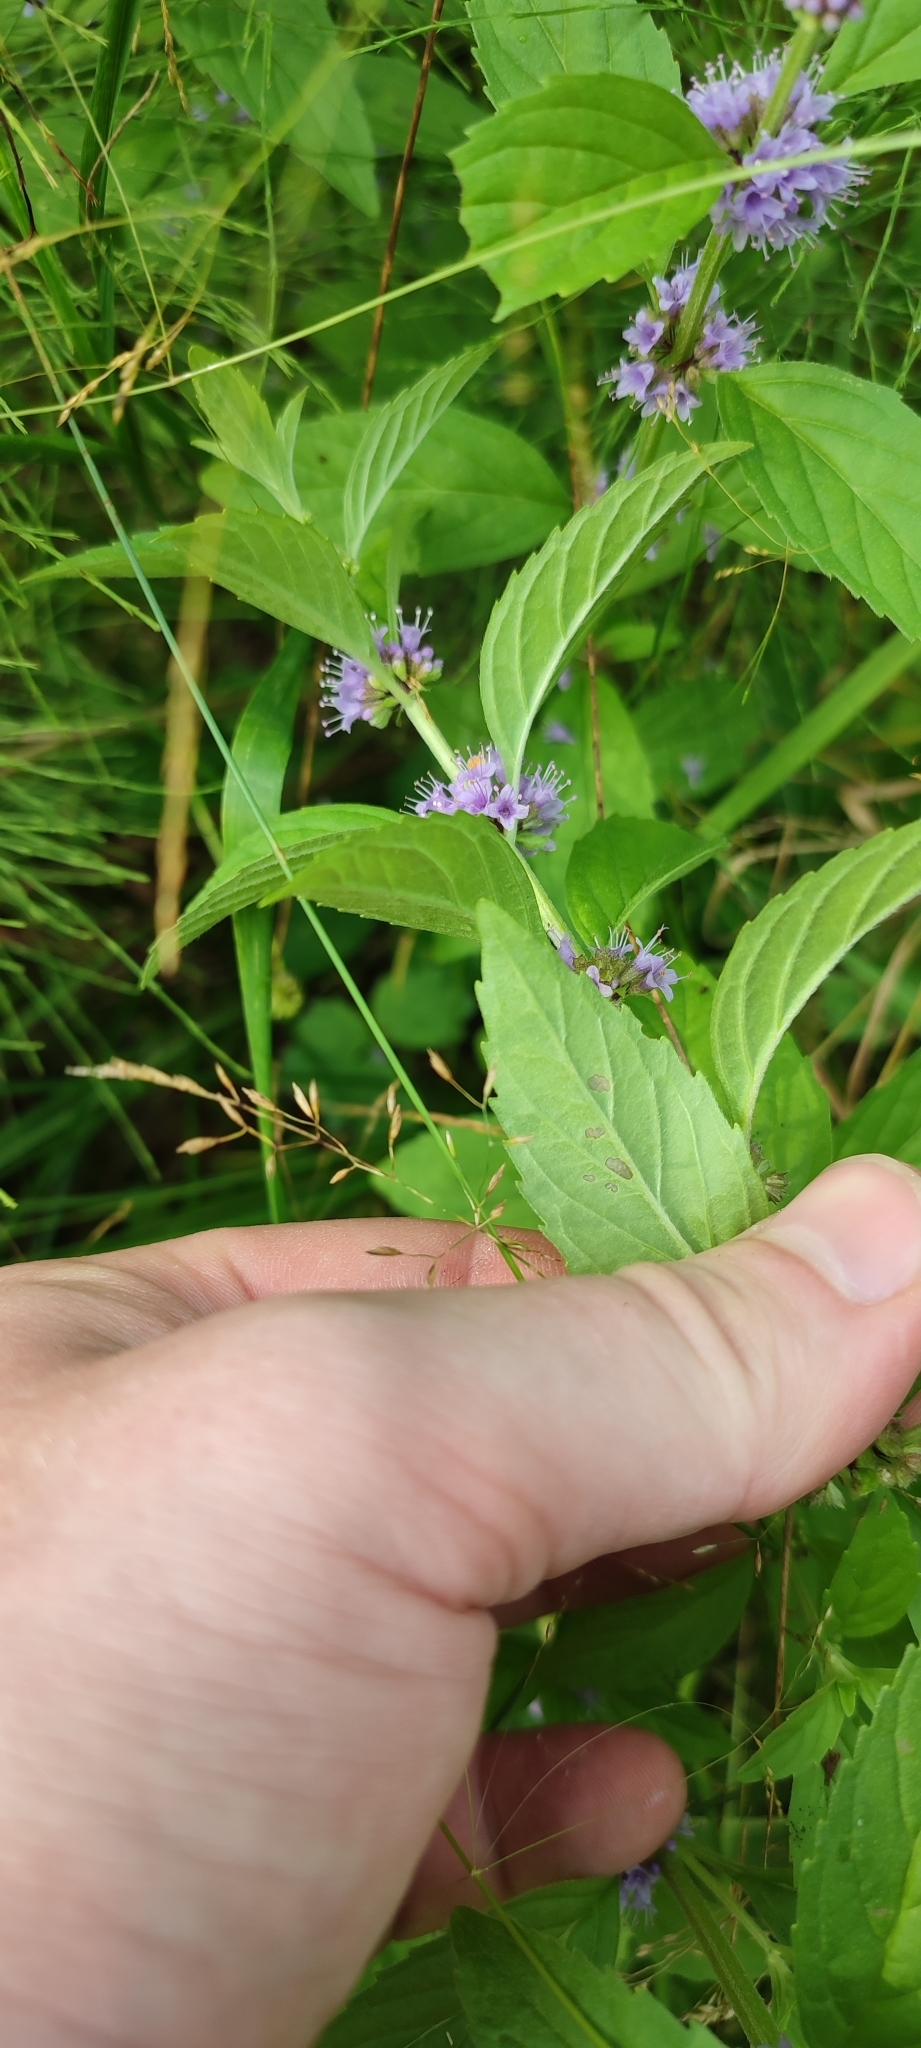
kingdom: Plantae
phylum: Tracheophyta
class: Magnoliopsida
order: Lamiales
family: Lamiaceae
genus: Mentha
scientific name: Mentha arvensis
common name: Corn mint
